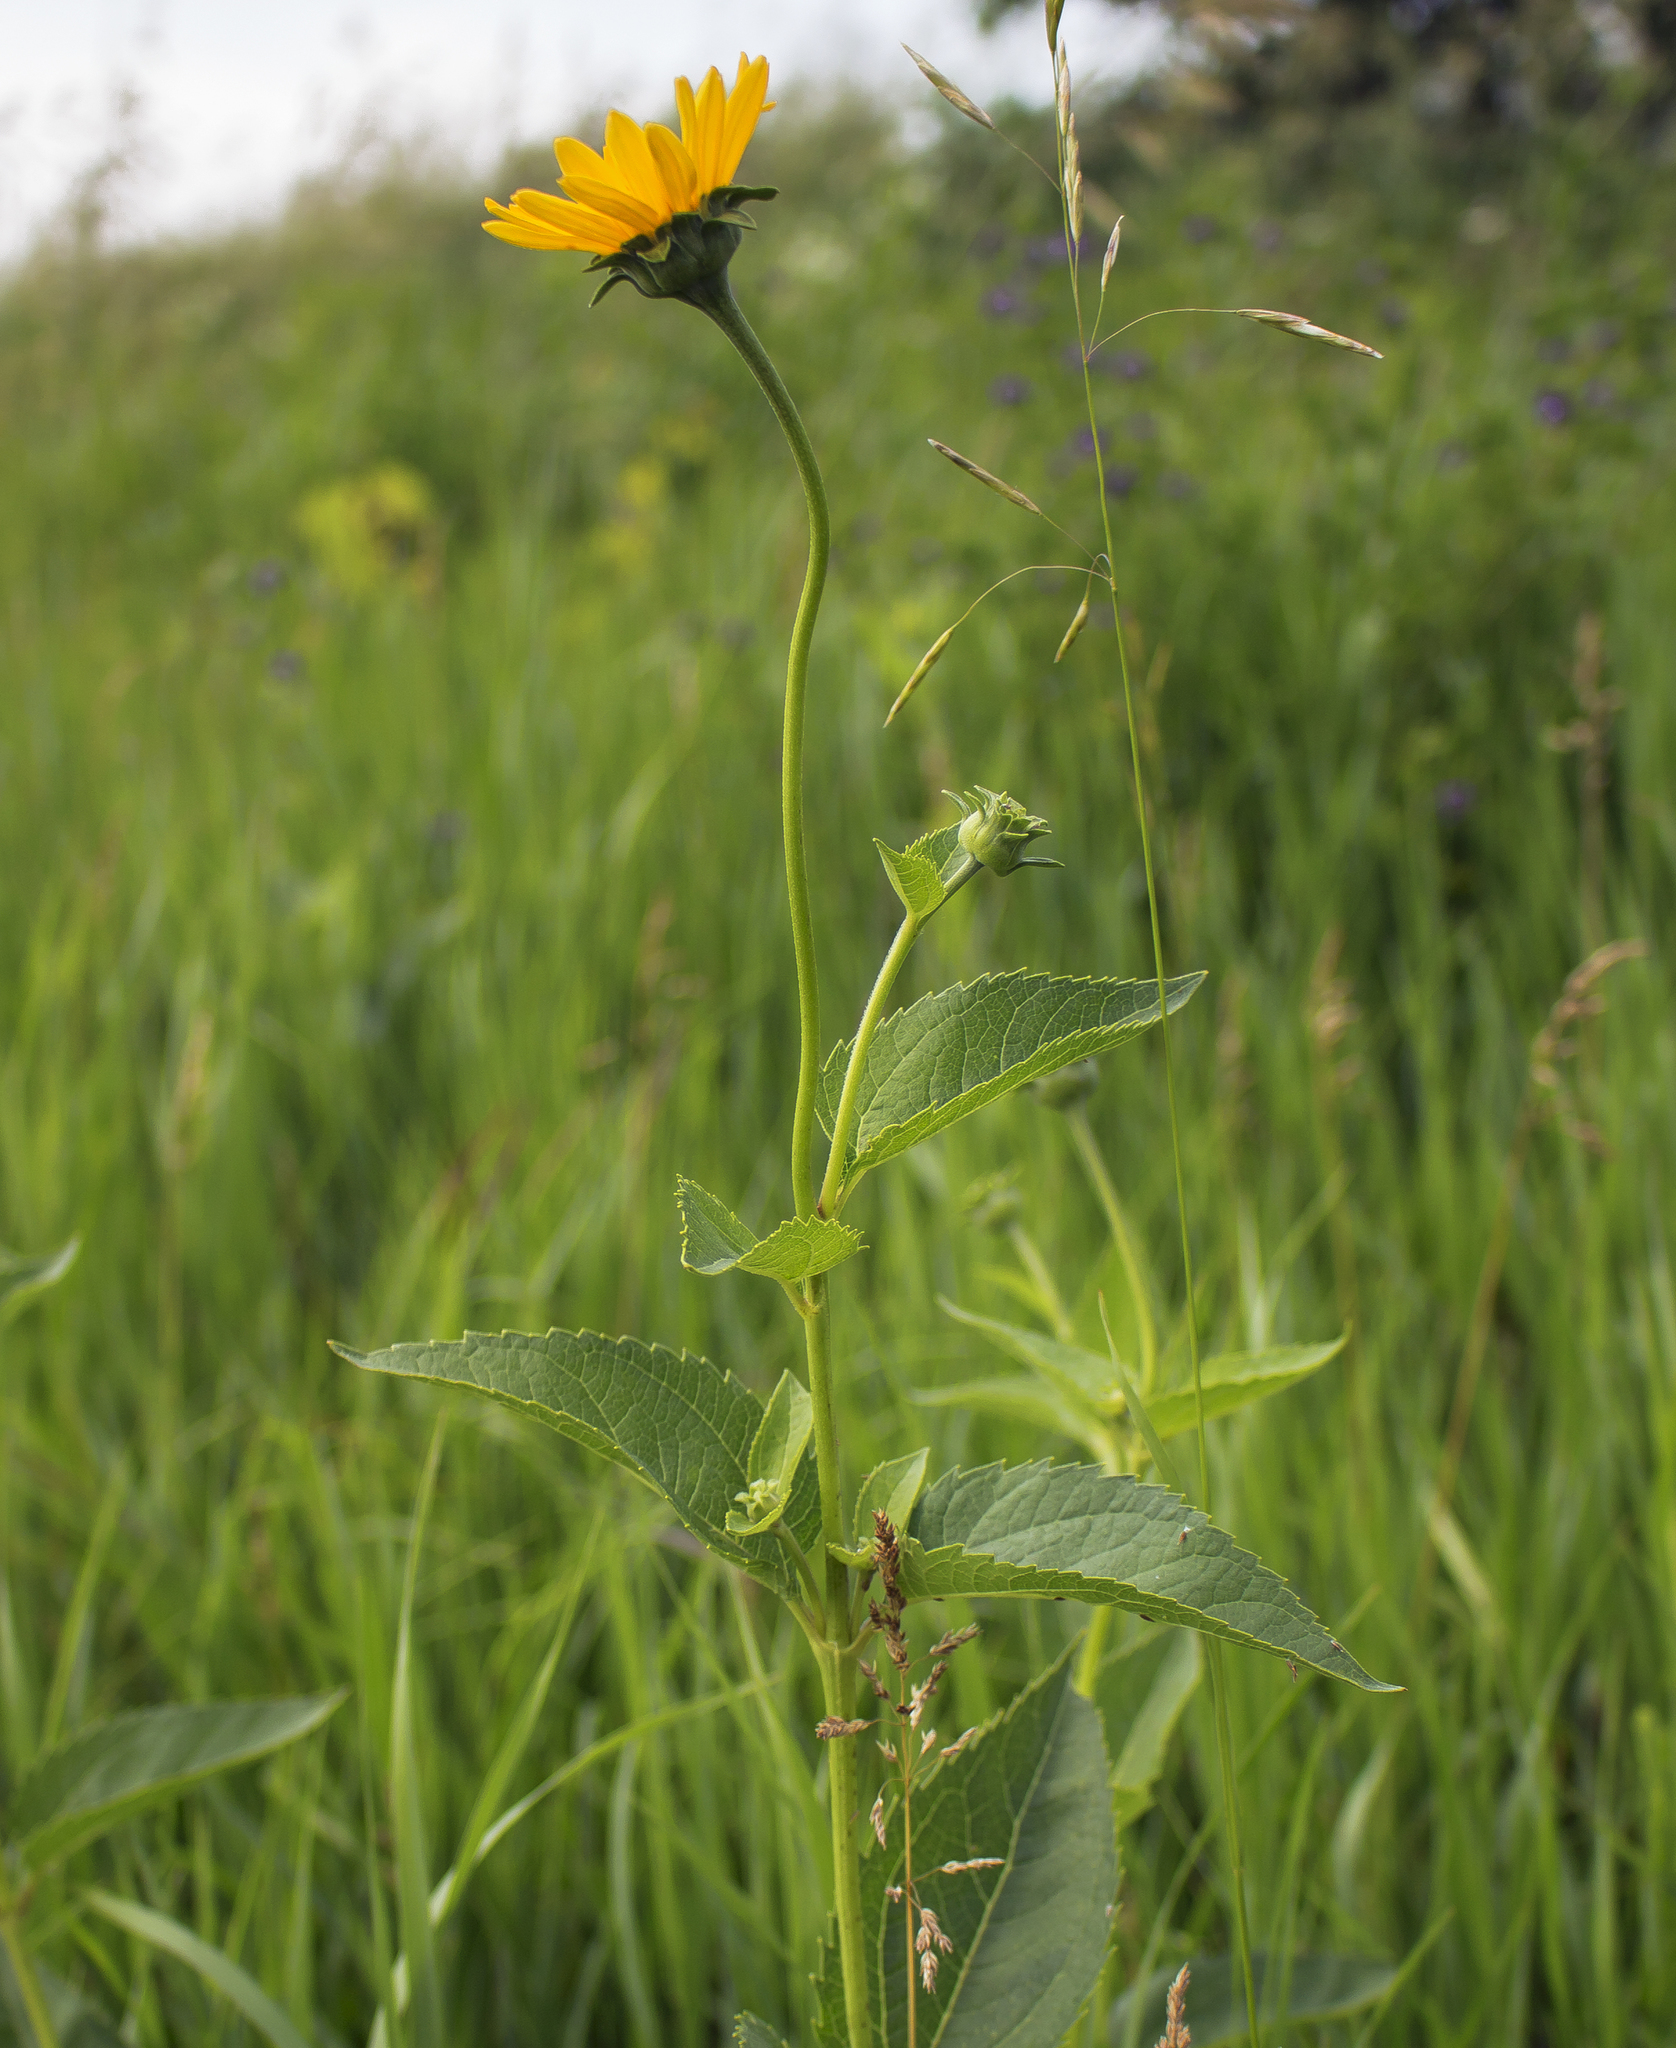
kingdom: Plantae
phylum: Tracheophyta
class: Magnoliopsida
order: Asterales
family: Asteraceae
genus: Heliopsis
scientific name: Heliopsis helianthoides
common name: False sunflower
